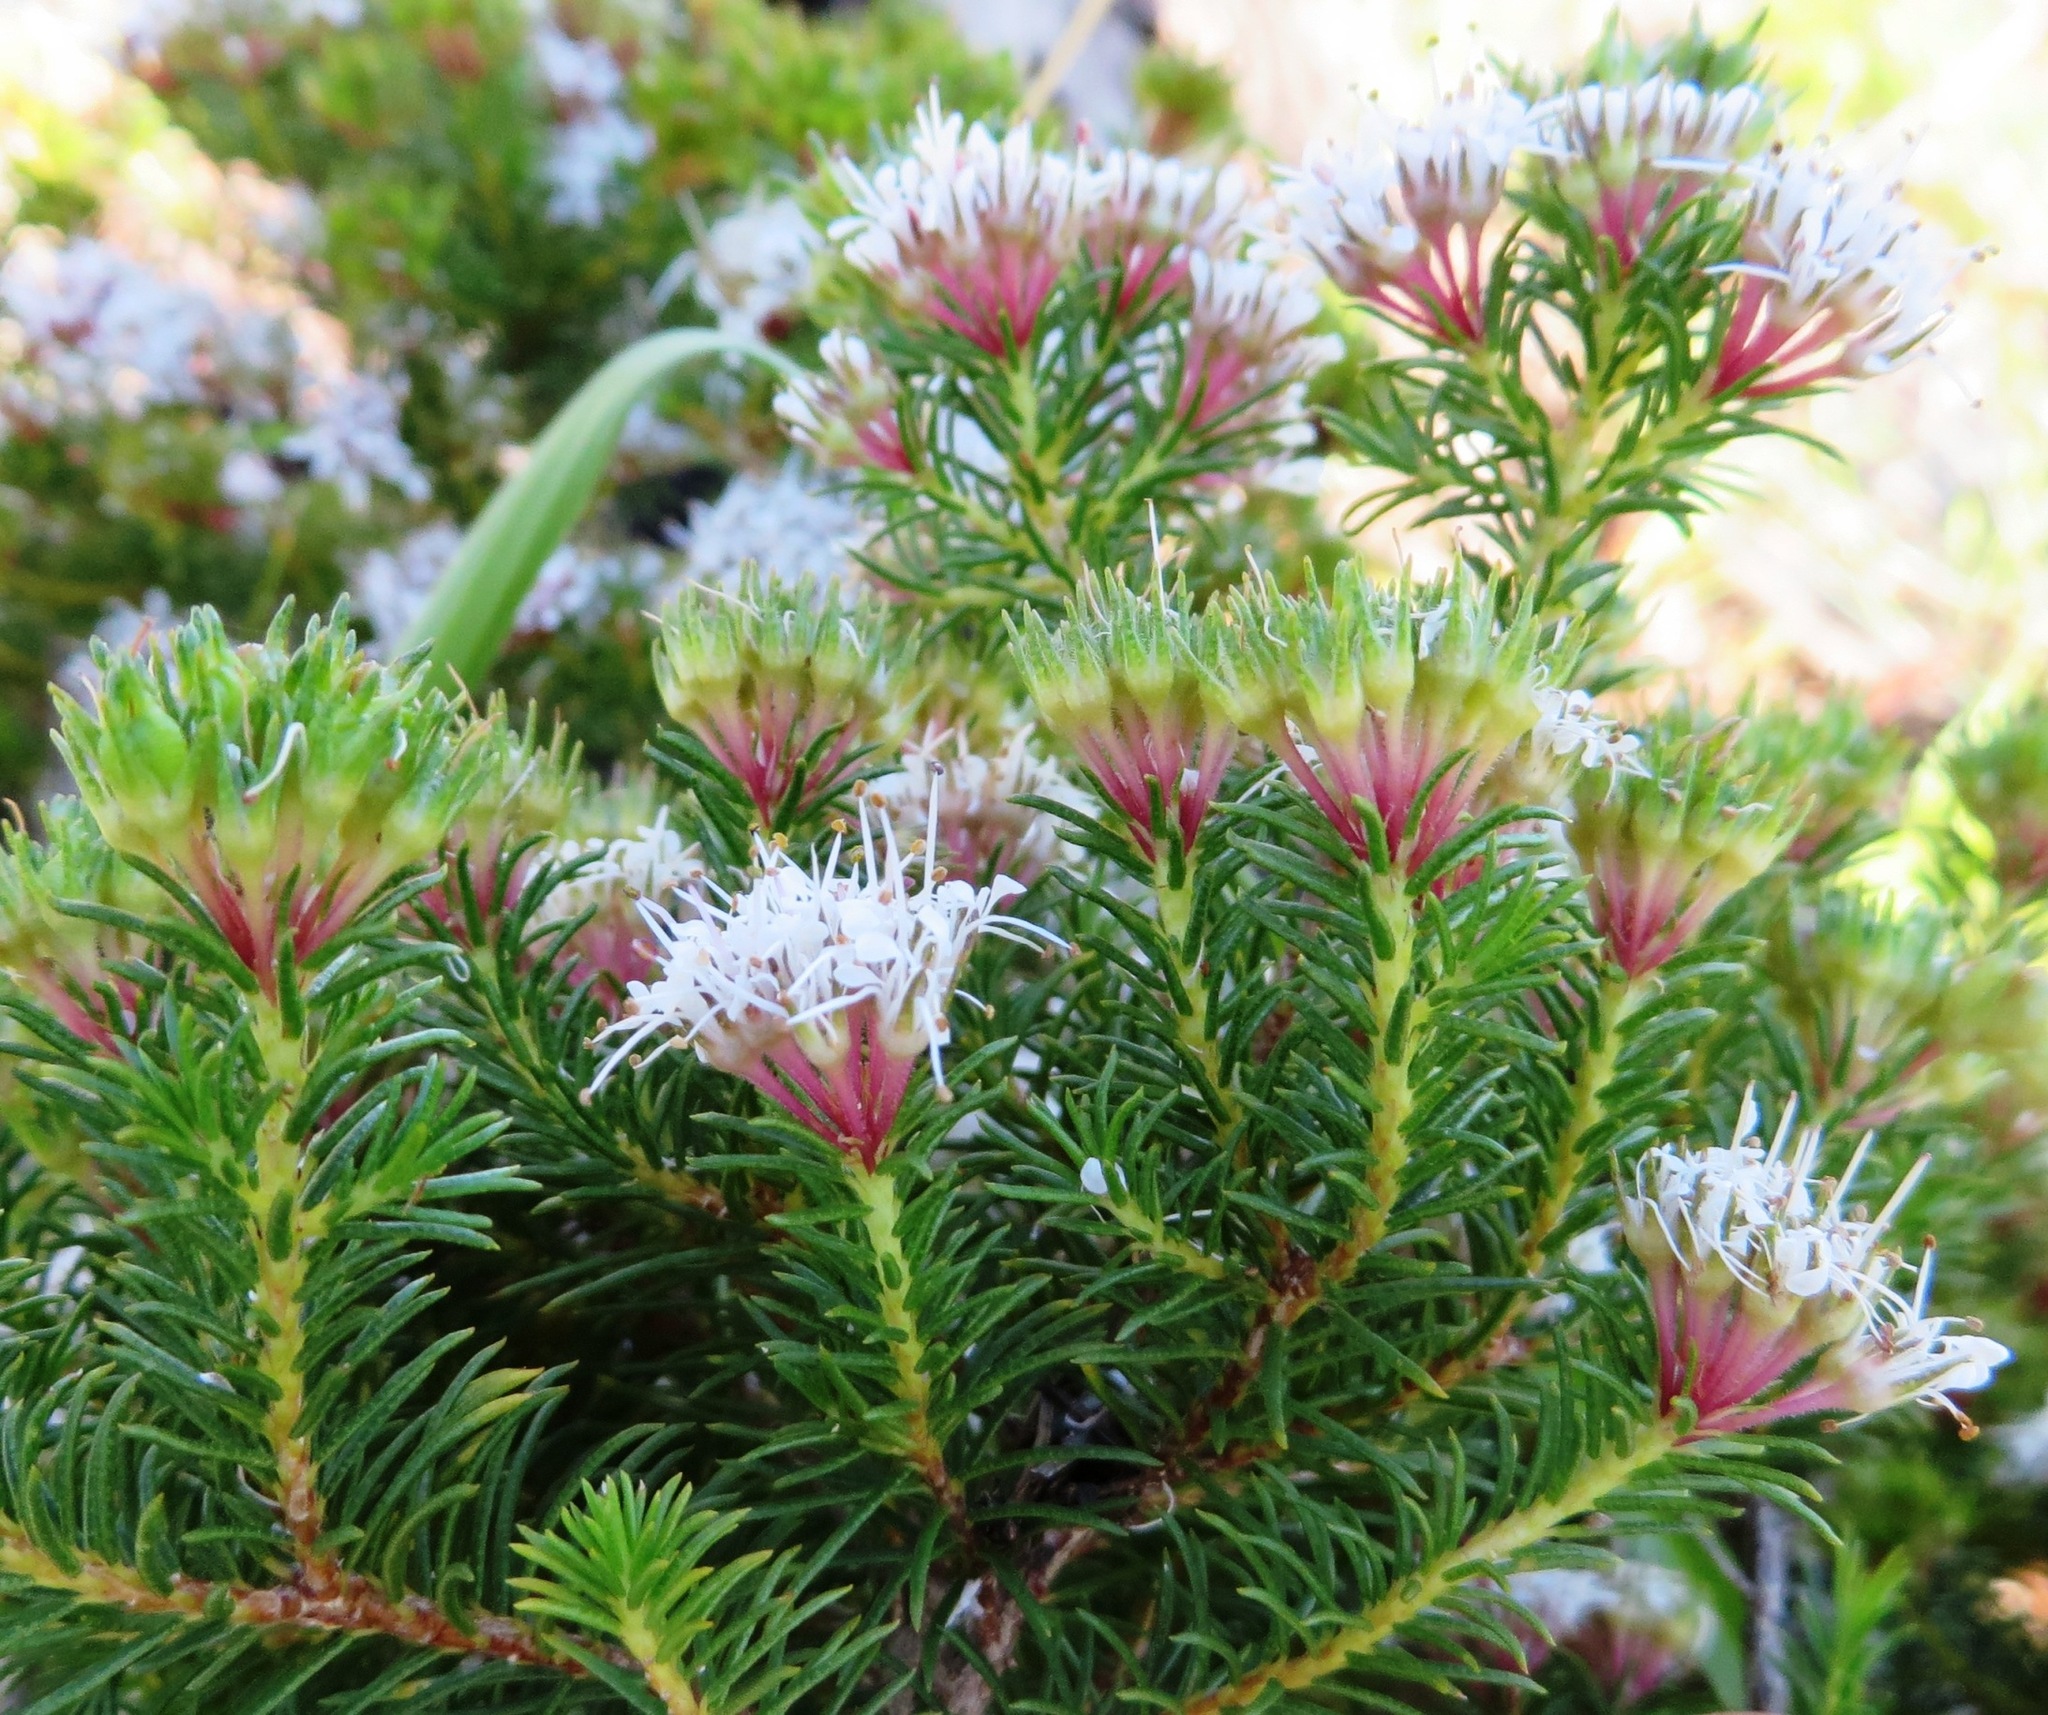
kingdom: Plantae
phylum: Tracheophyta
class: Magnoliopsida
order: Sapindales
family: Rutaceae
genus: Agathosma
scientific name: Agathosma ciliaris
